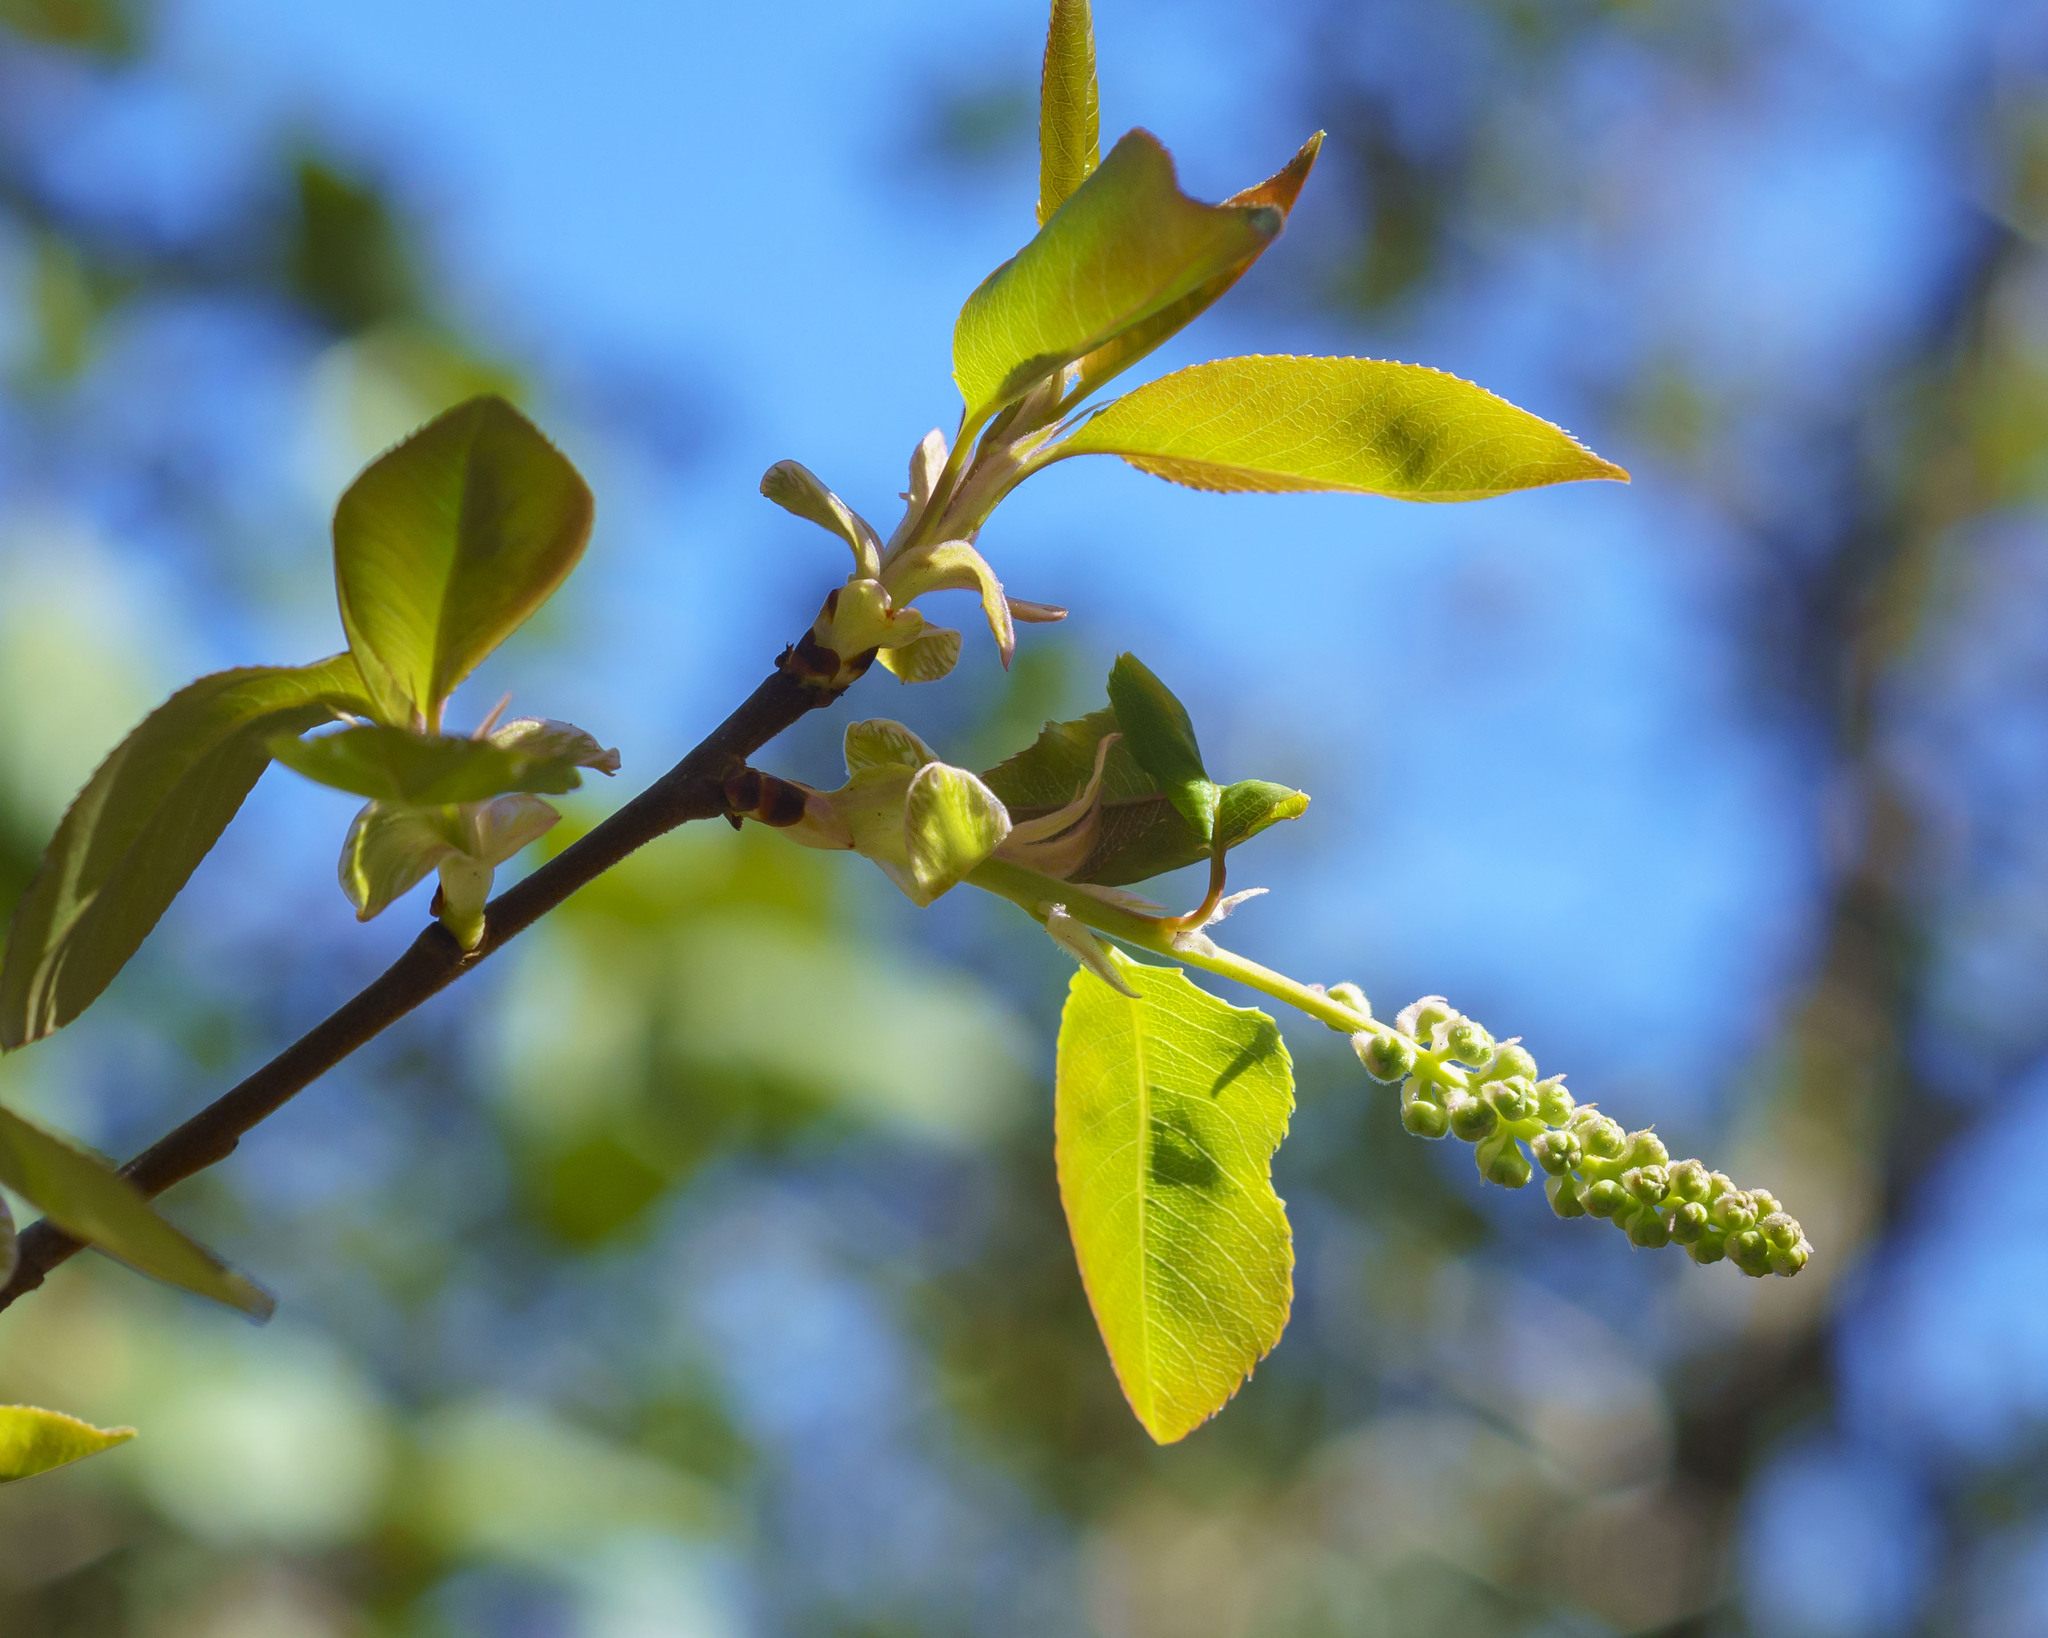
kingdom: Plantae
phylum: Tracheophyta
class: Magnoliopsida
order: Rosales
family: Rosaceae
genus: Prunus
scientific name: Prunus serotina
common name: Black cherry
